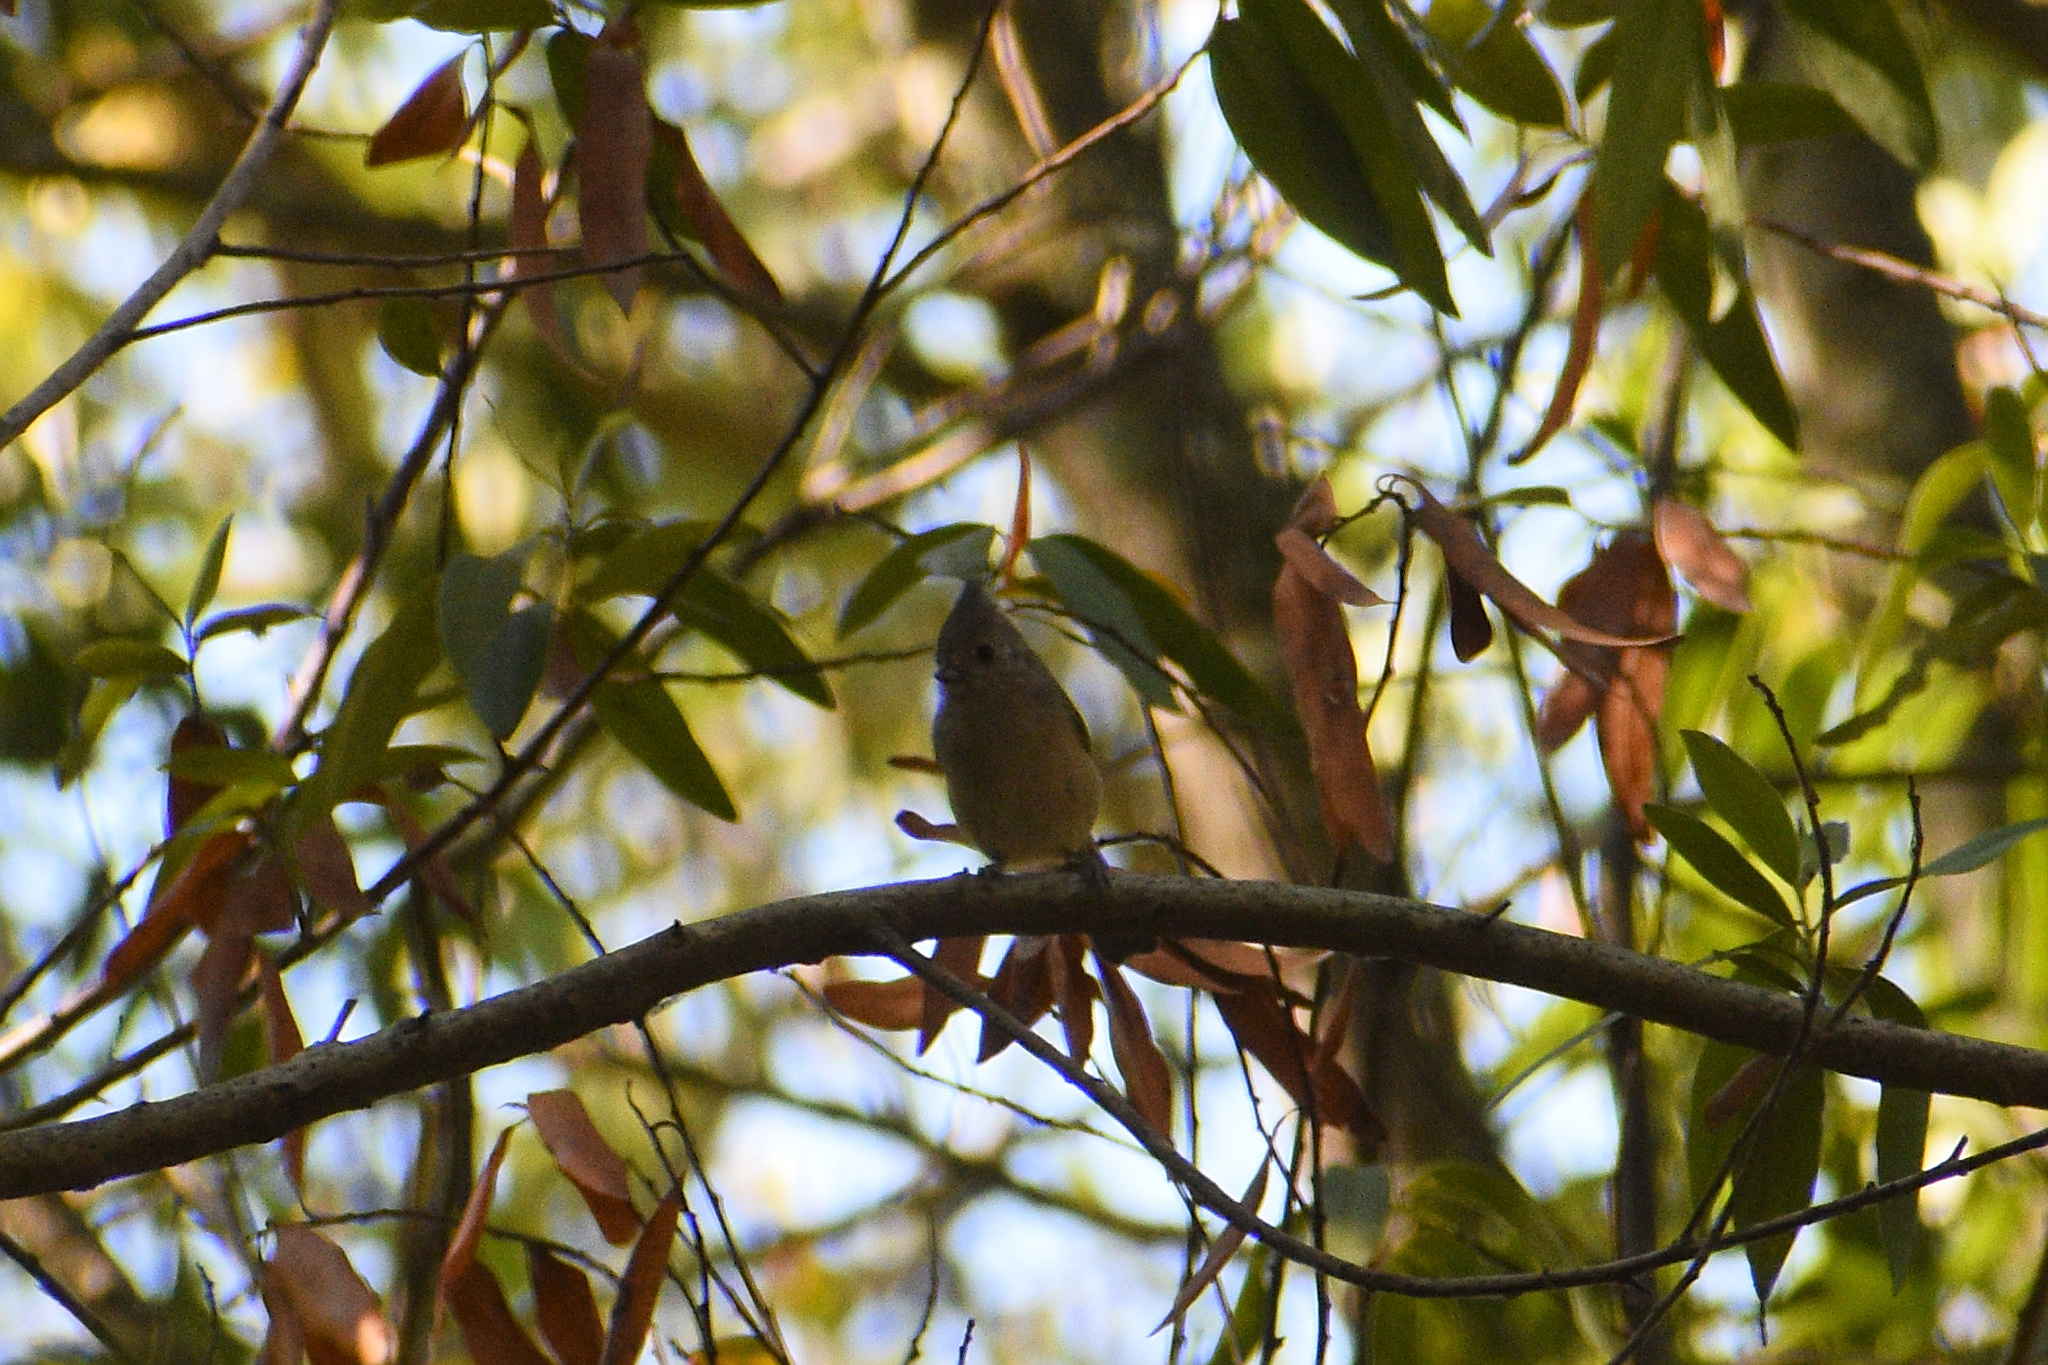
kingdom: Animalia
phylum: Chordata
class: Aves
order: Passeriformes
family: Paridae
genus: Baeolophus
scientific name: Baeolophus inornatus
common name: Oak titmouse
